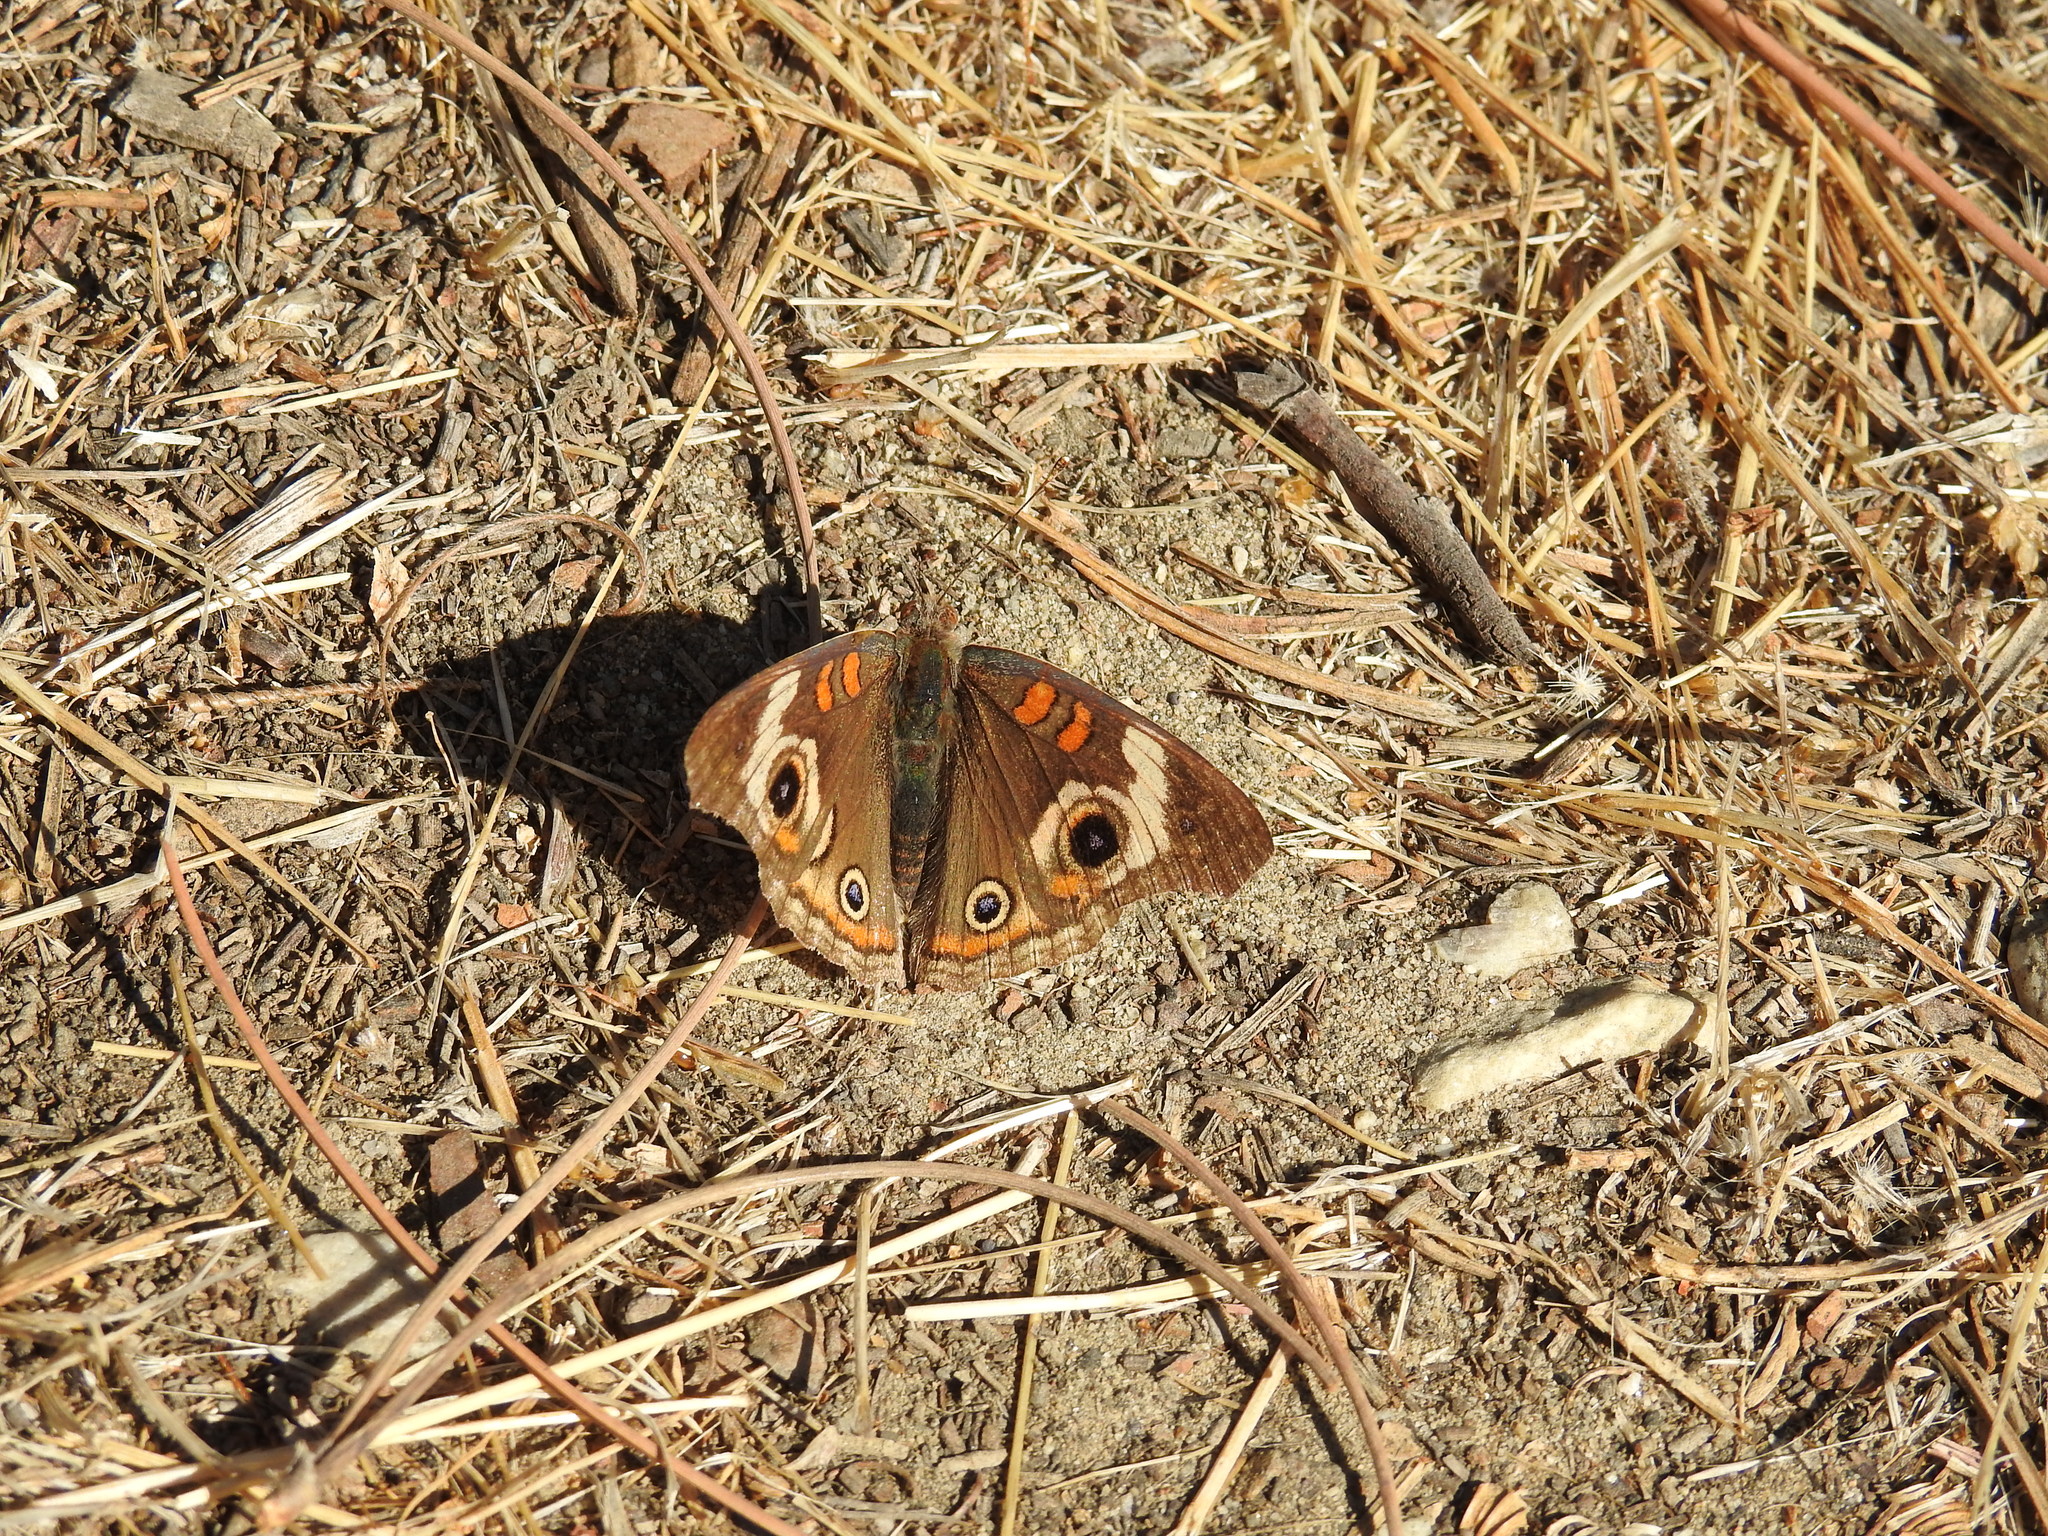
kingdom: Animalia
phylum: Arthropoda
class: Insecta
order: Lepidoptera
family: Nymphalidae
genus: Junonia
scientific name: Junonia grisea
